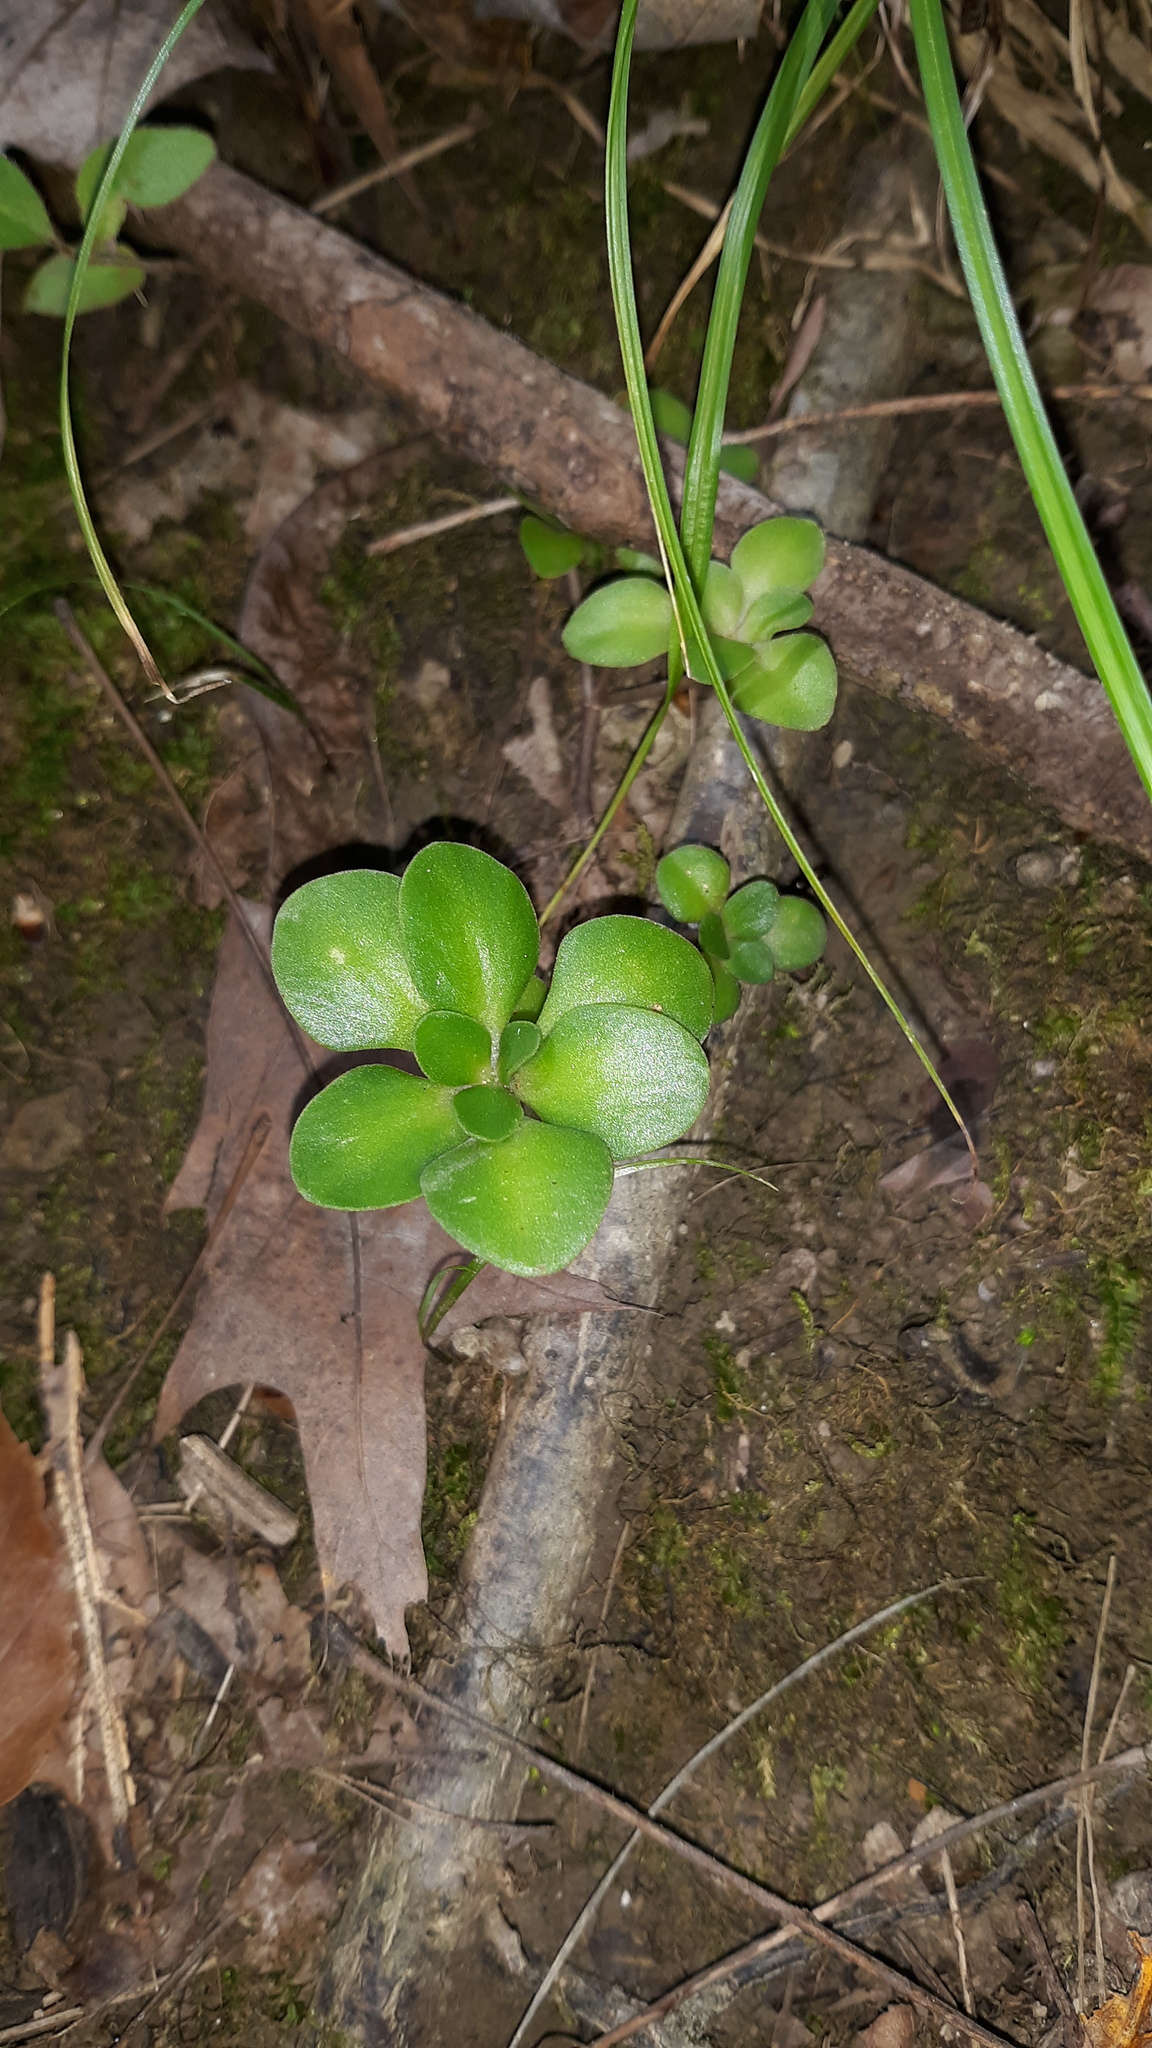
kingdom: Plantae
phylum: Tracheophyta
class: Magnoliopsida
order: Saxifragales
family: Crassulaceae
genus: Sedum
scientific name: Sedum ternatum
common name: Wild stonecrop
